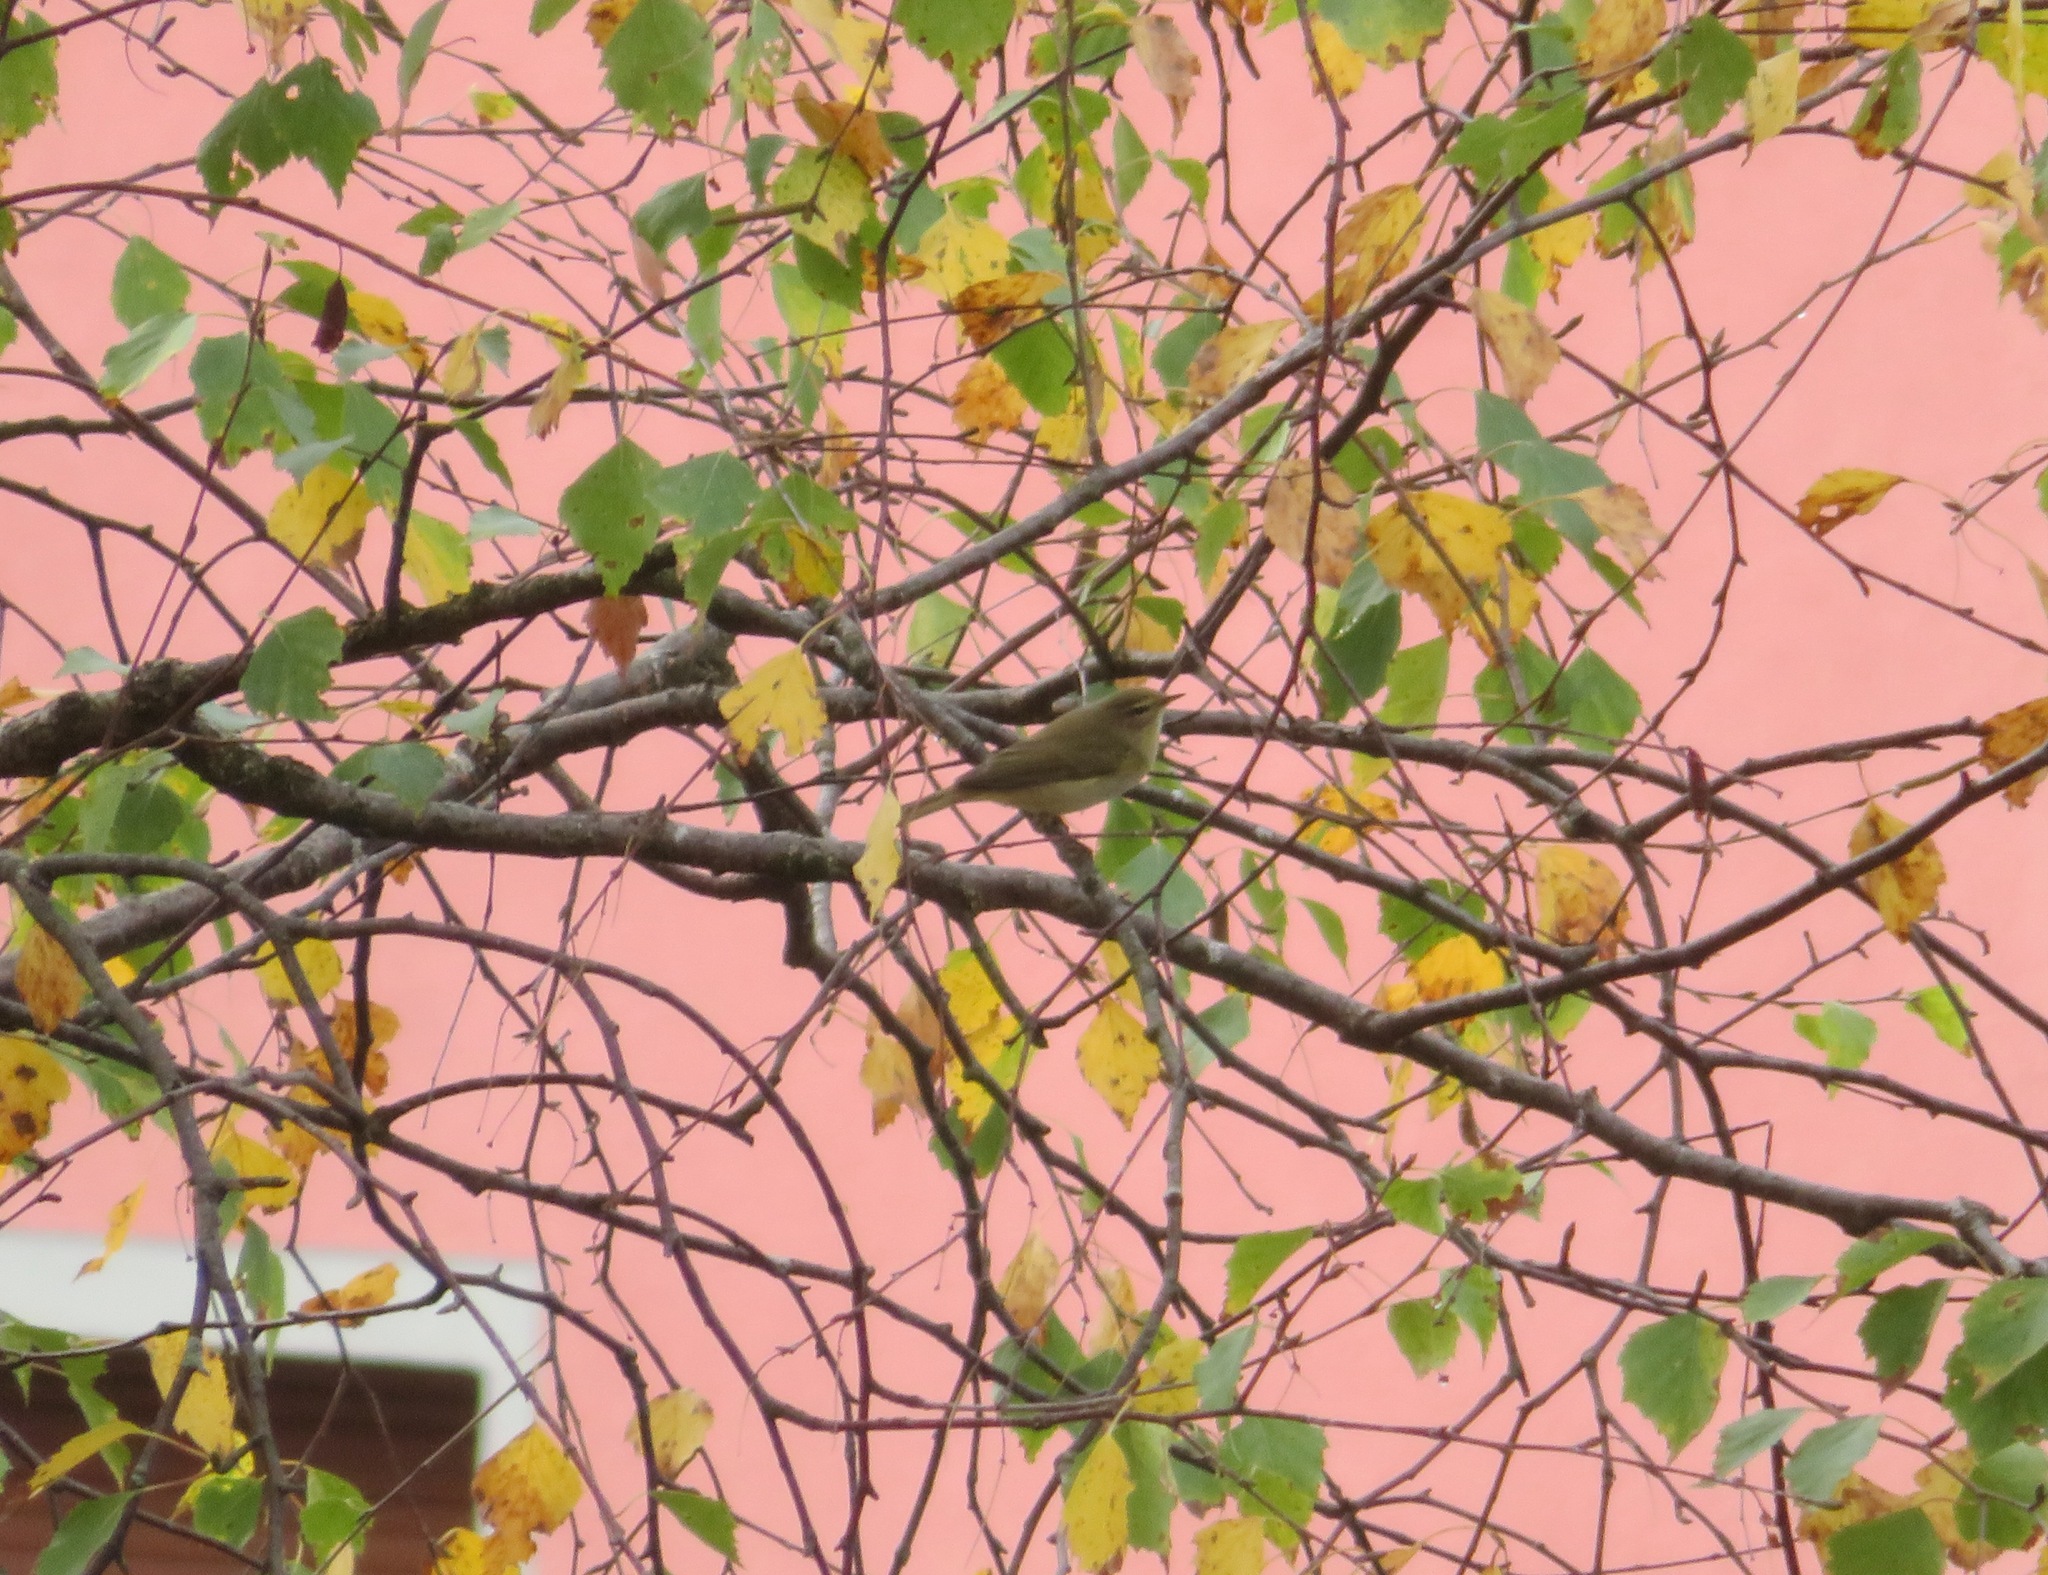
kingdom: Animalia
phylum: Chordata
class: Aves
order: Passeriformes
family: Phylloscopidae
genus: Phylloscopus
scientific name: Phylloscopus trochilus
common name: Willow warbler
